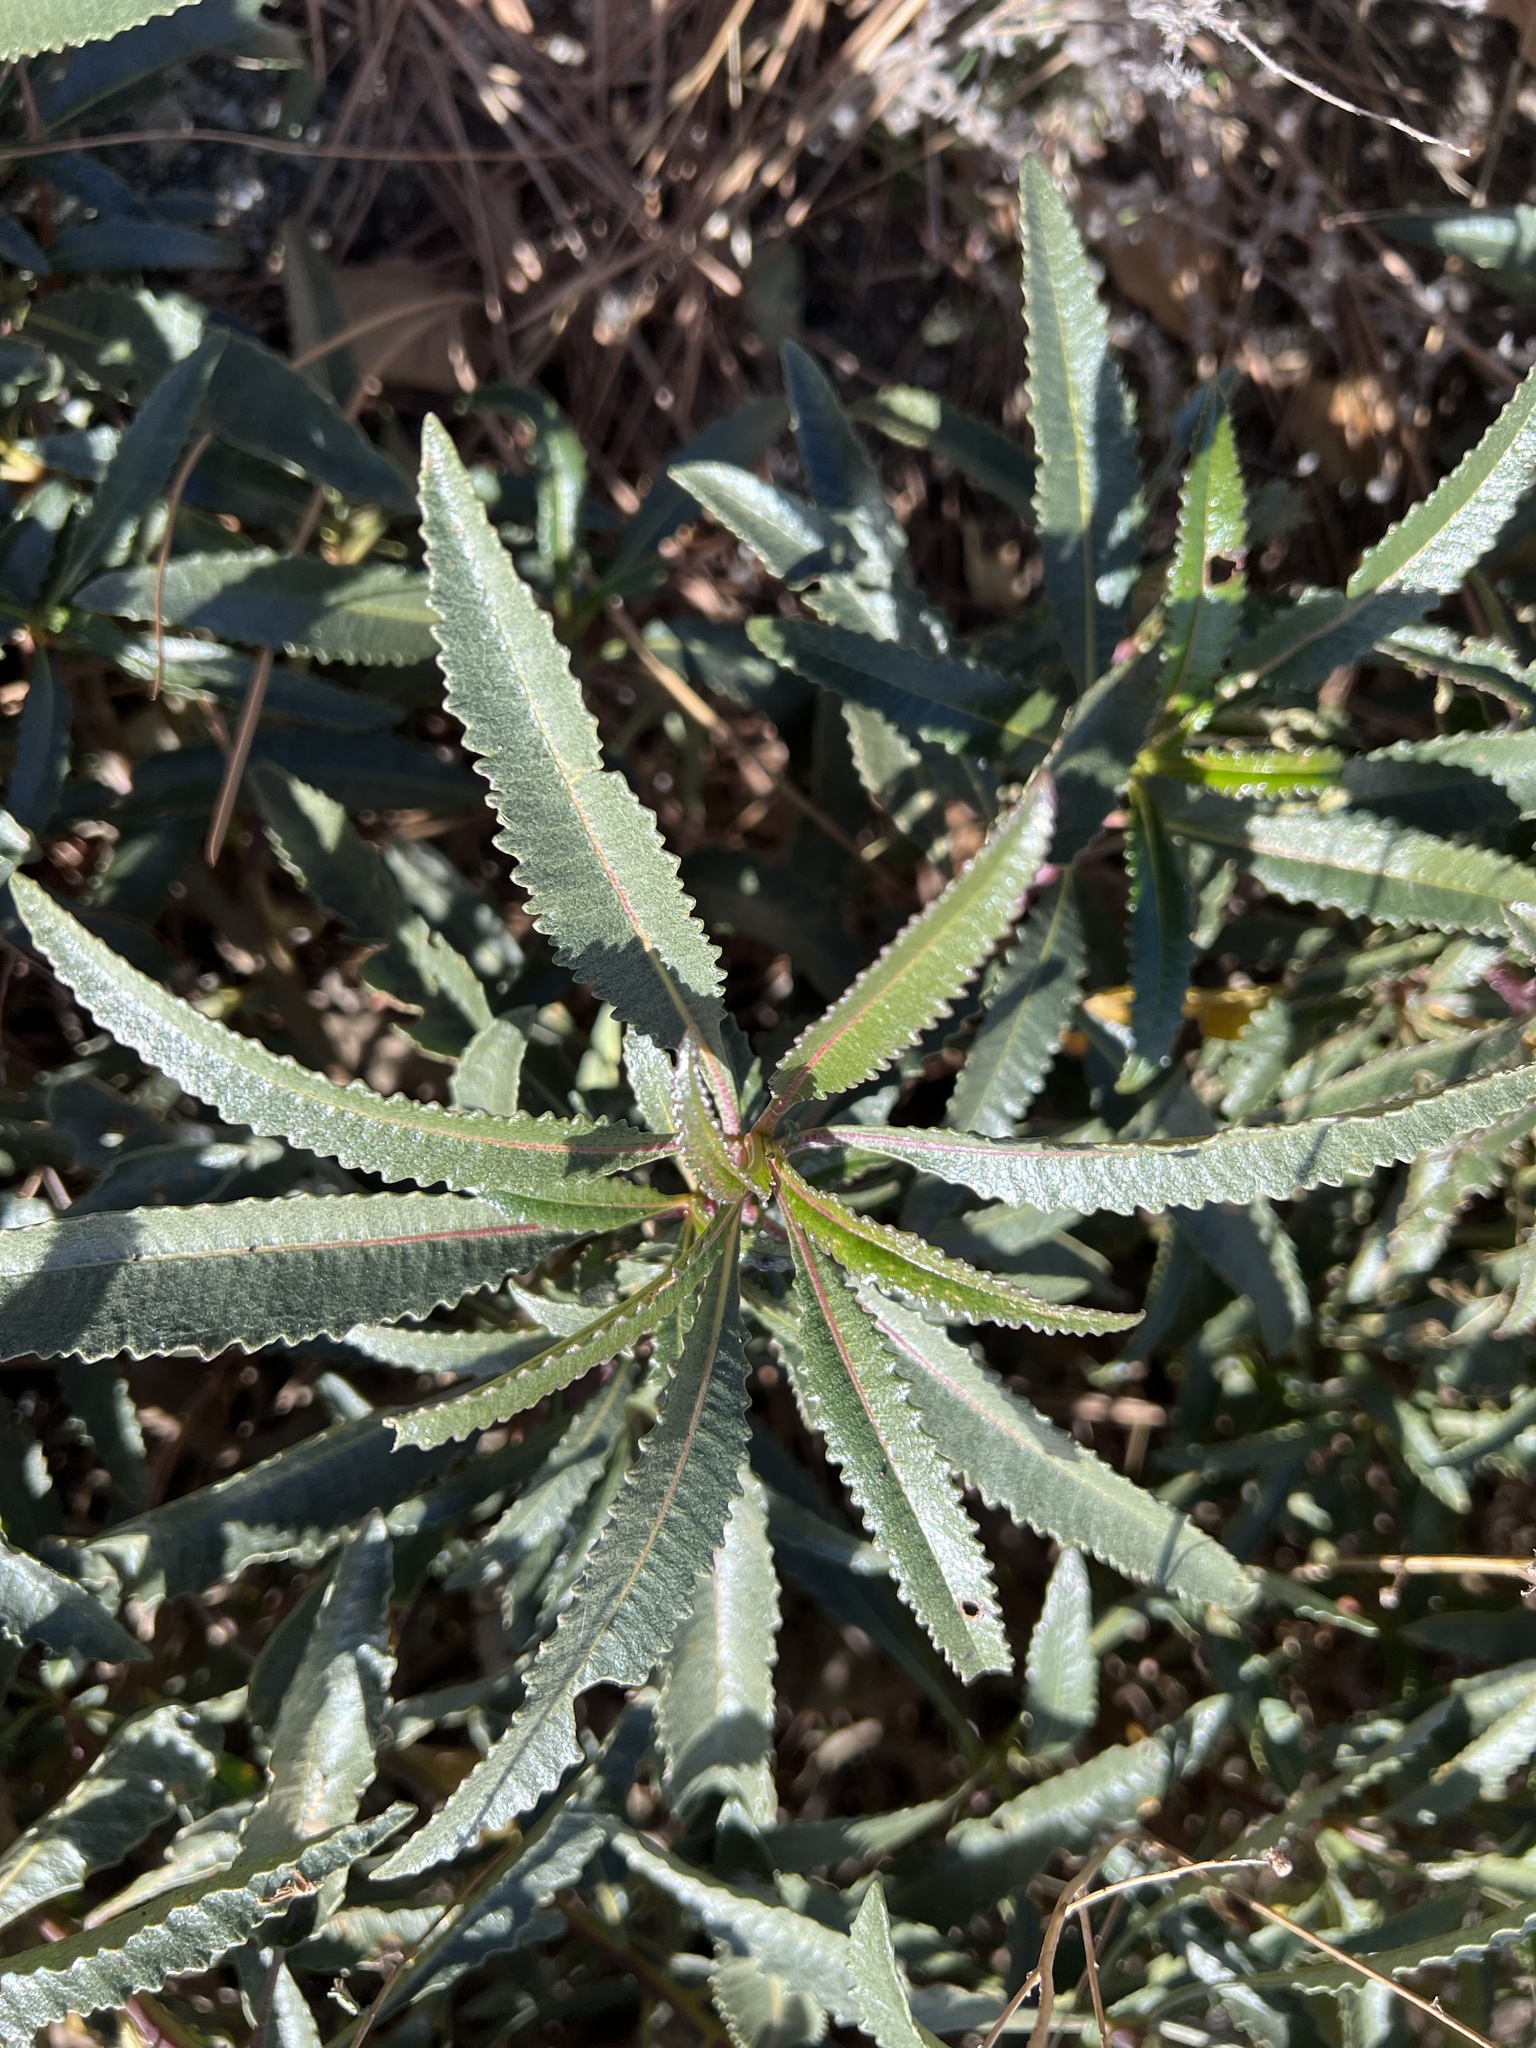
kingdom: Plantae
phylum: Tracheophyta
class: Magnoliopsida
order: Boraginales
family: Namaceae
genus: Eriodictyon
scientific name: Eriodictyon trichocalyx
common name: Hairy yerba-santa
